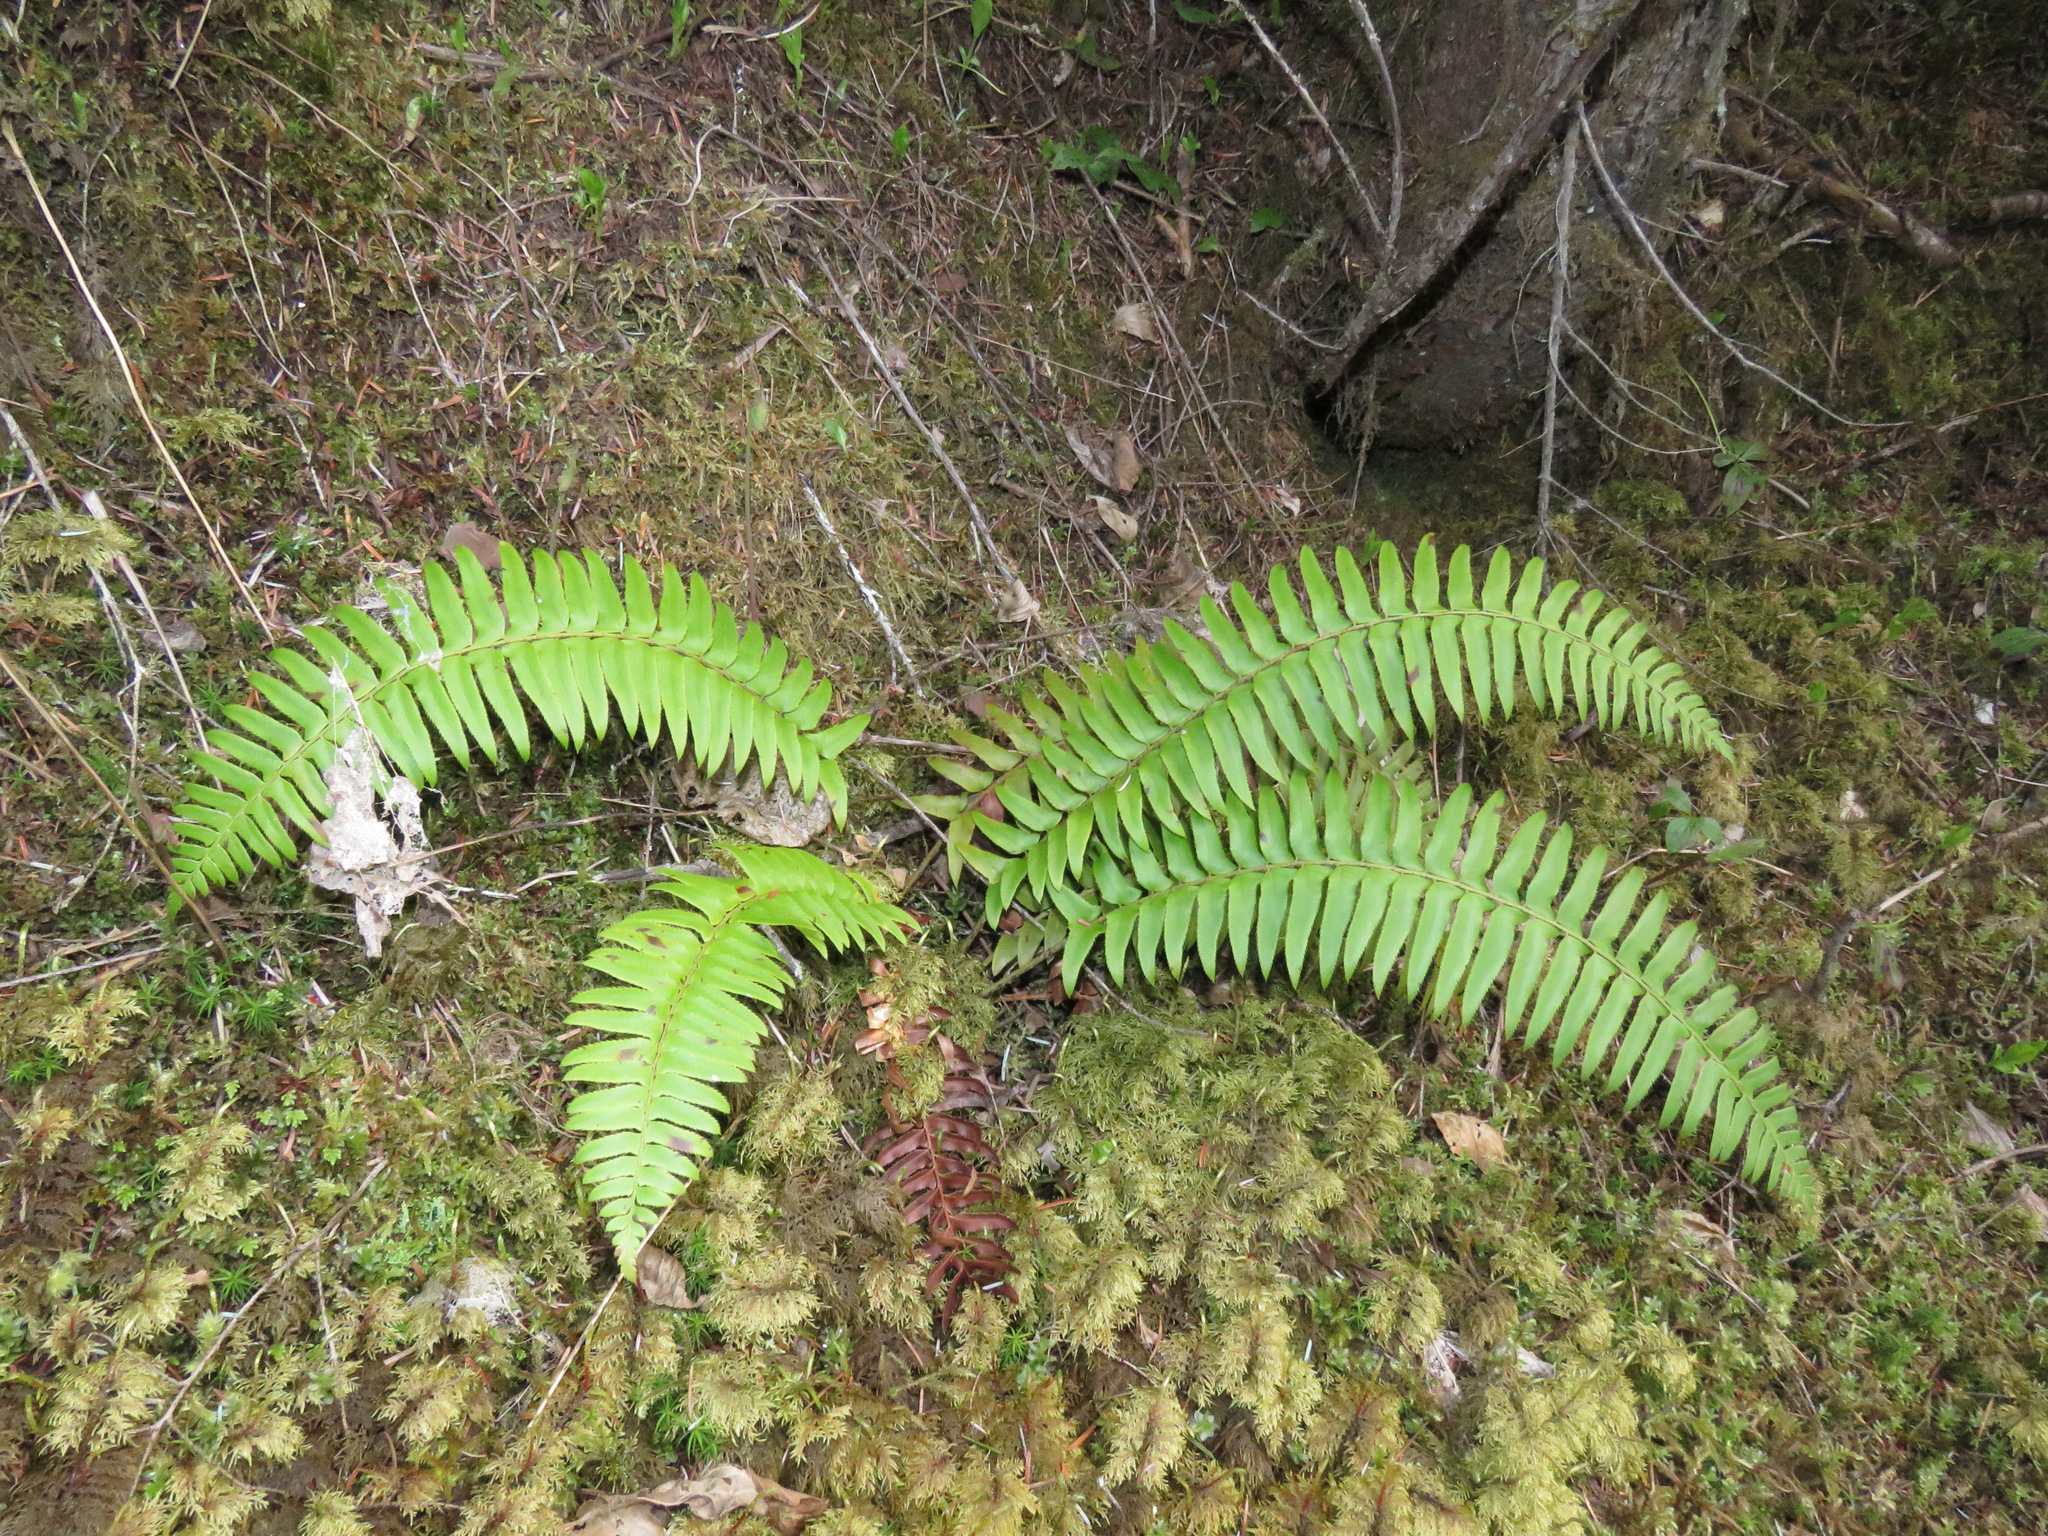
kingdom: Plantae
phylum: Tracheophyta
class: Polypodiopsida
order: Polypodiales
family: Dryopteridaceae
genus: Polystichum
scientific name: Polystichum munitum
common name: Western sword-fern
